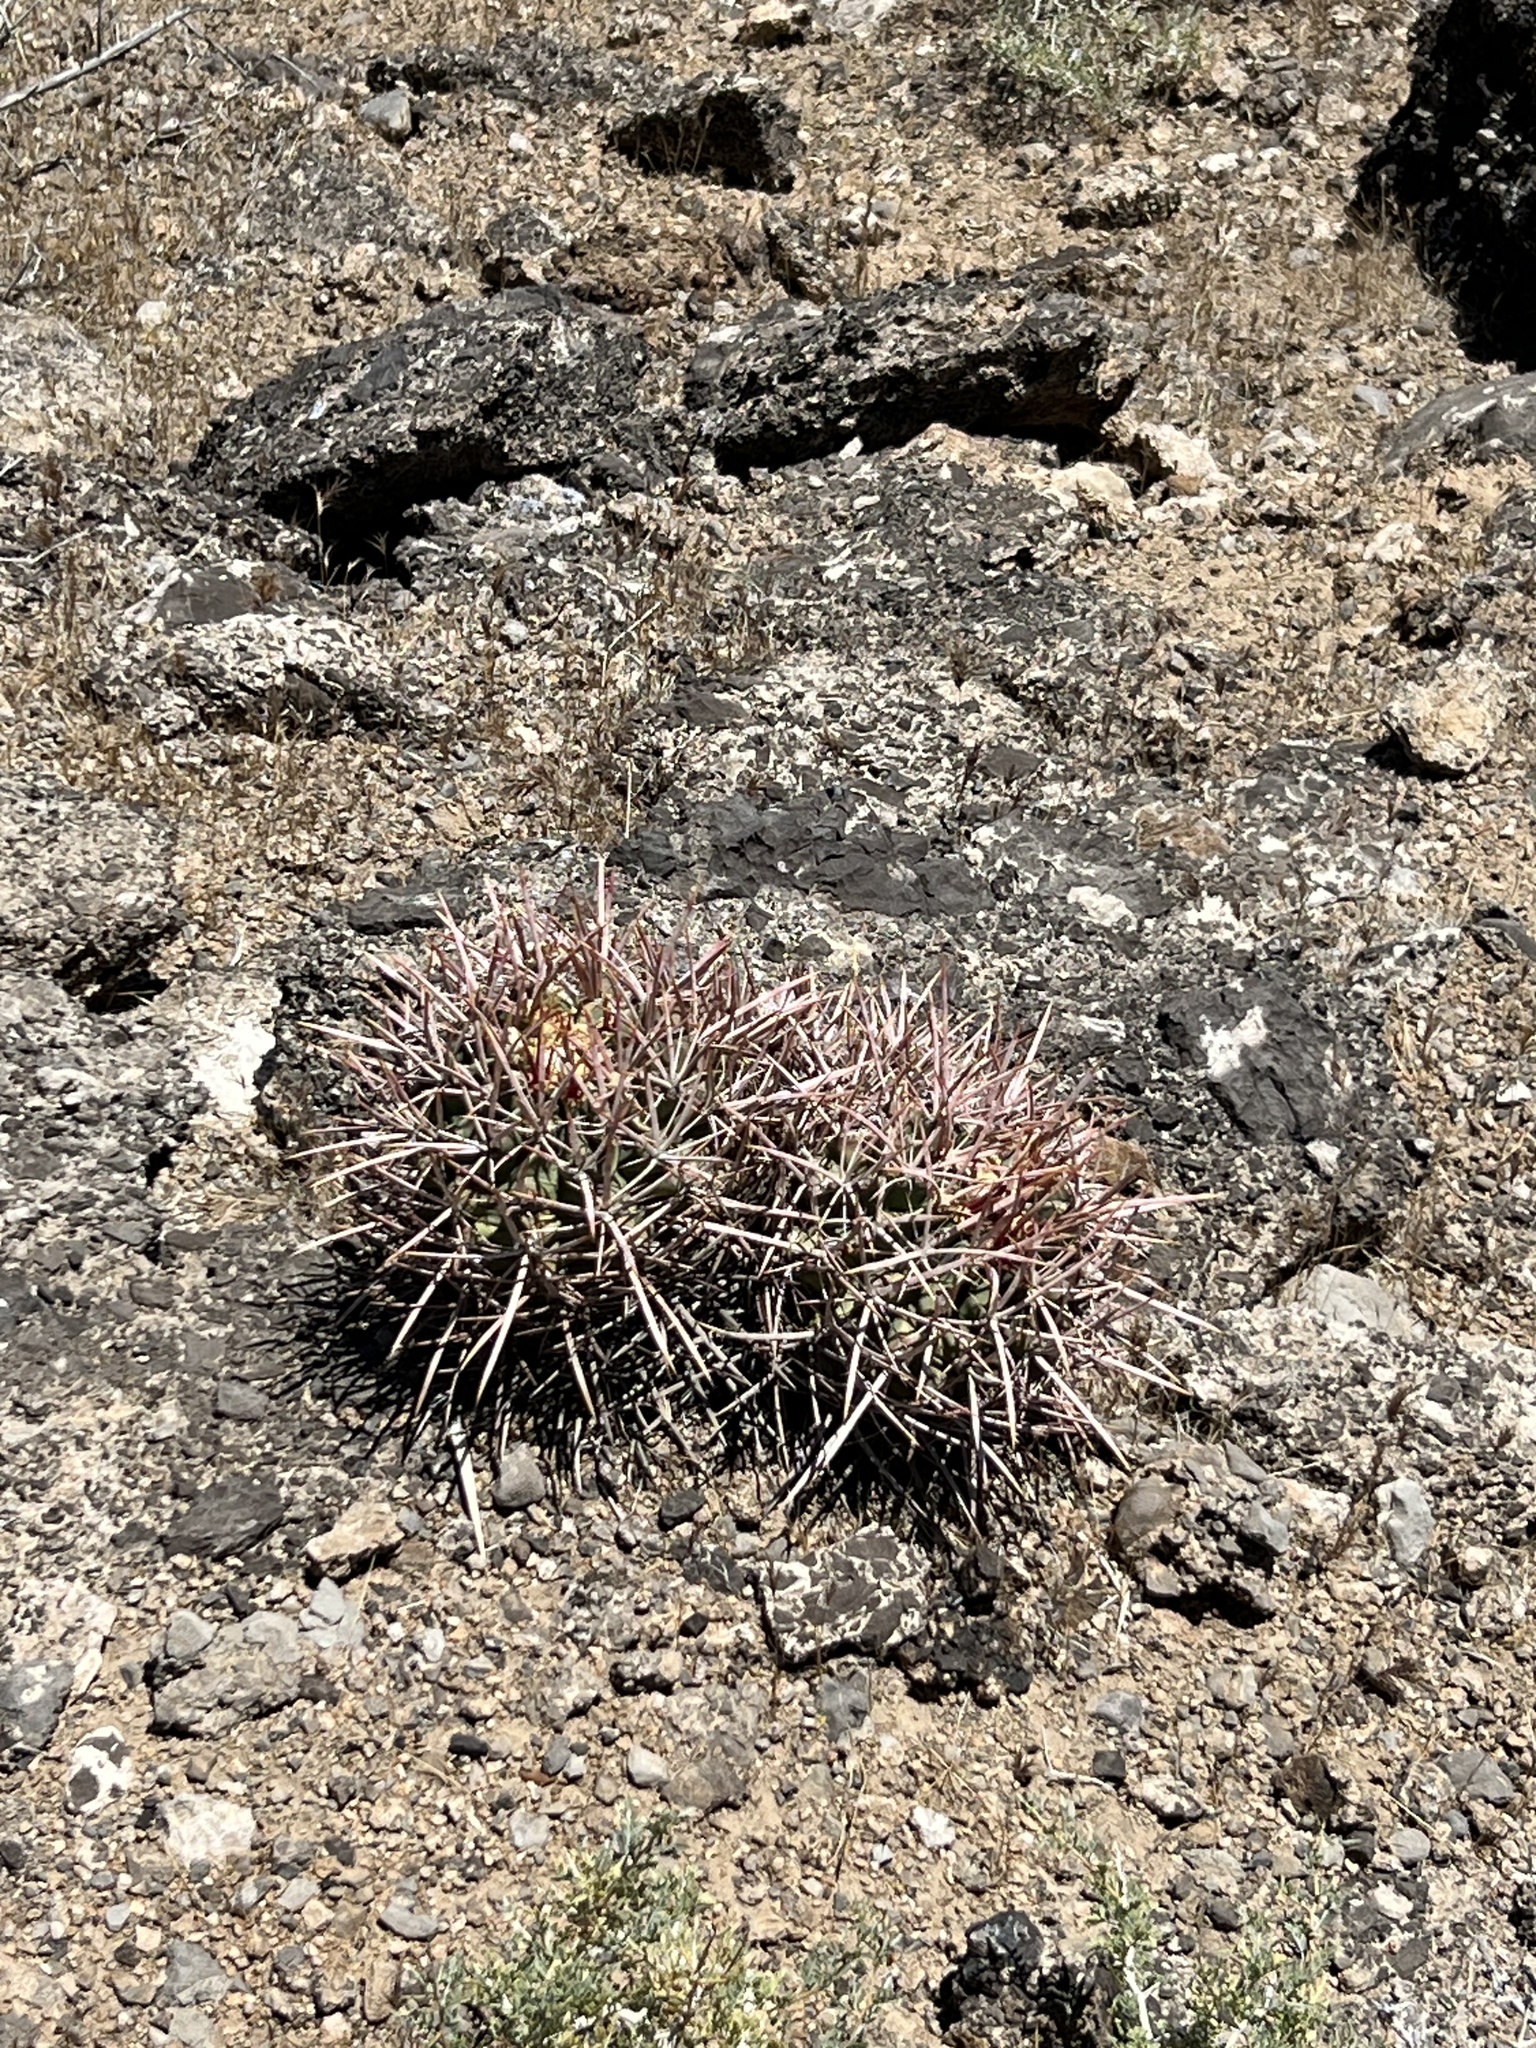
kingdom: Plantae
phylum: Tracheophyta
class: Magnoliopsida
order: Caryophyllales
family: Cactaceae
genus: Echinocactus
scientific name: Echinocactus polycephalus
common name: Cottontop cactus
